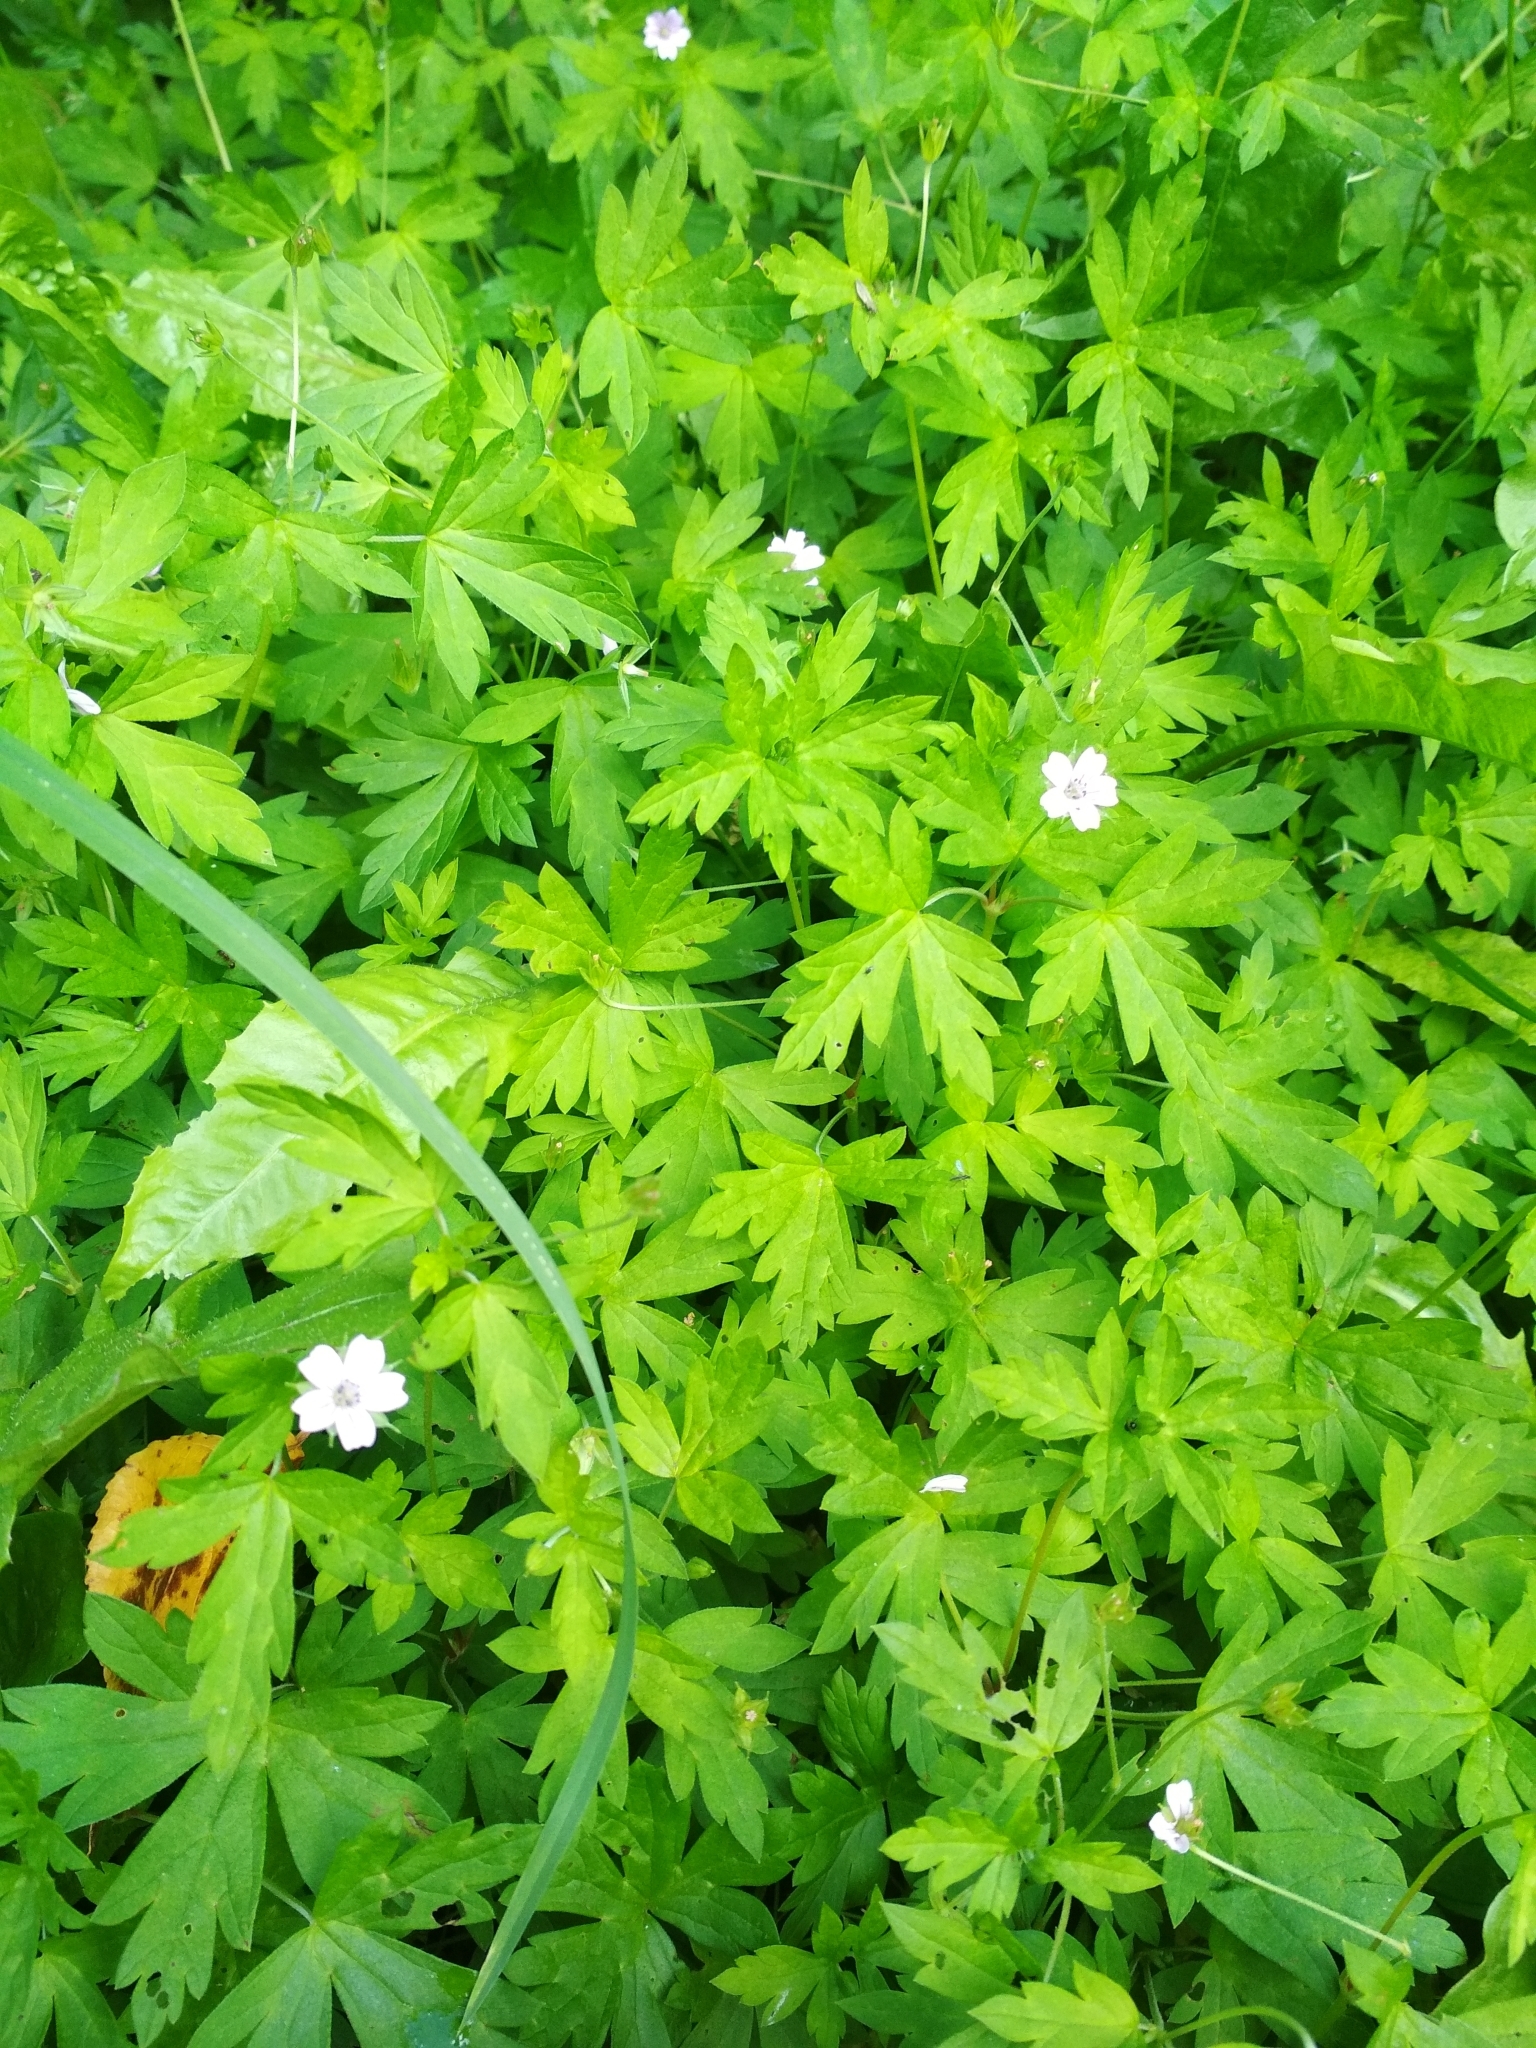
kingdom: Plantae
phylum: Tracheophyta
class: Magnoliopsida
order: Geraniales
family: Geraniaceae
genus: Geranium
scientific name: Geranium sibiricum
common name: Siberian crane's-bill
